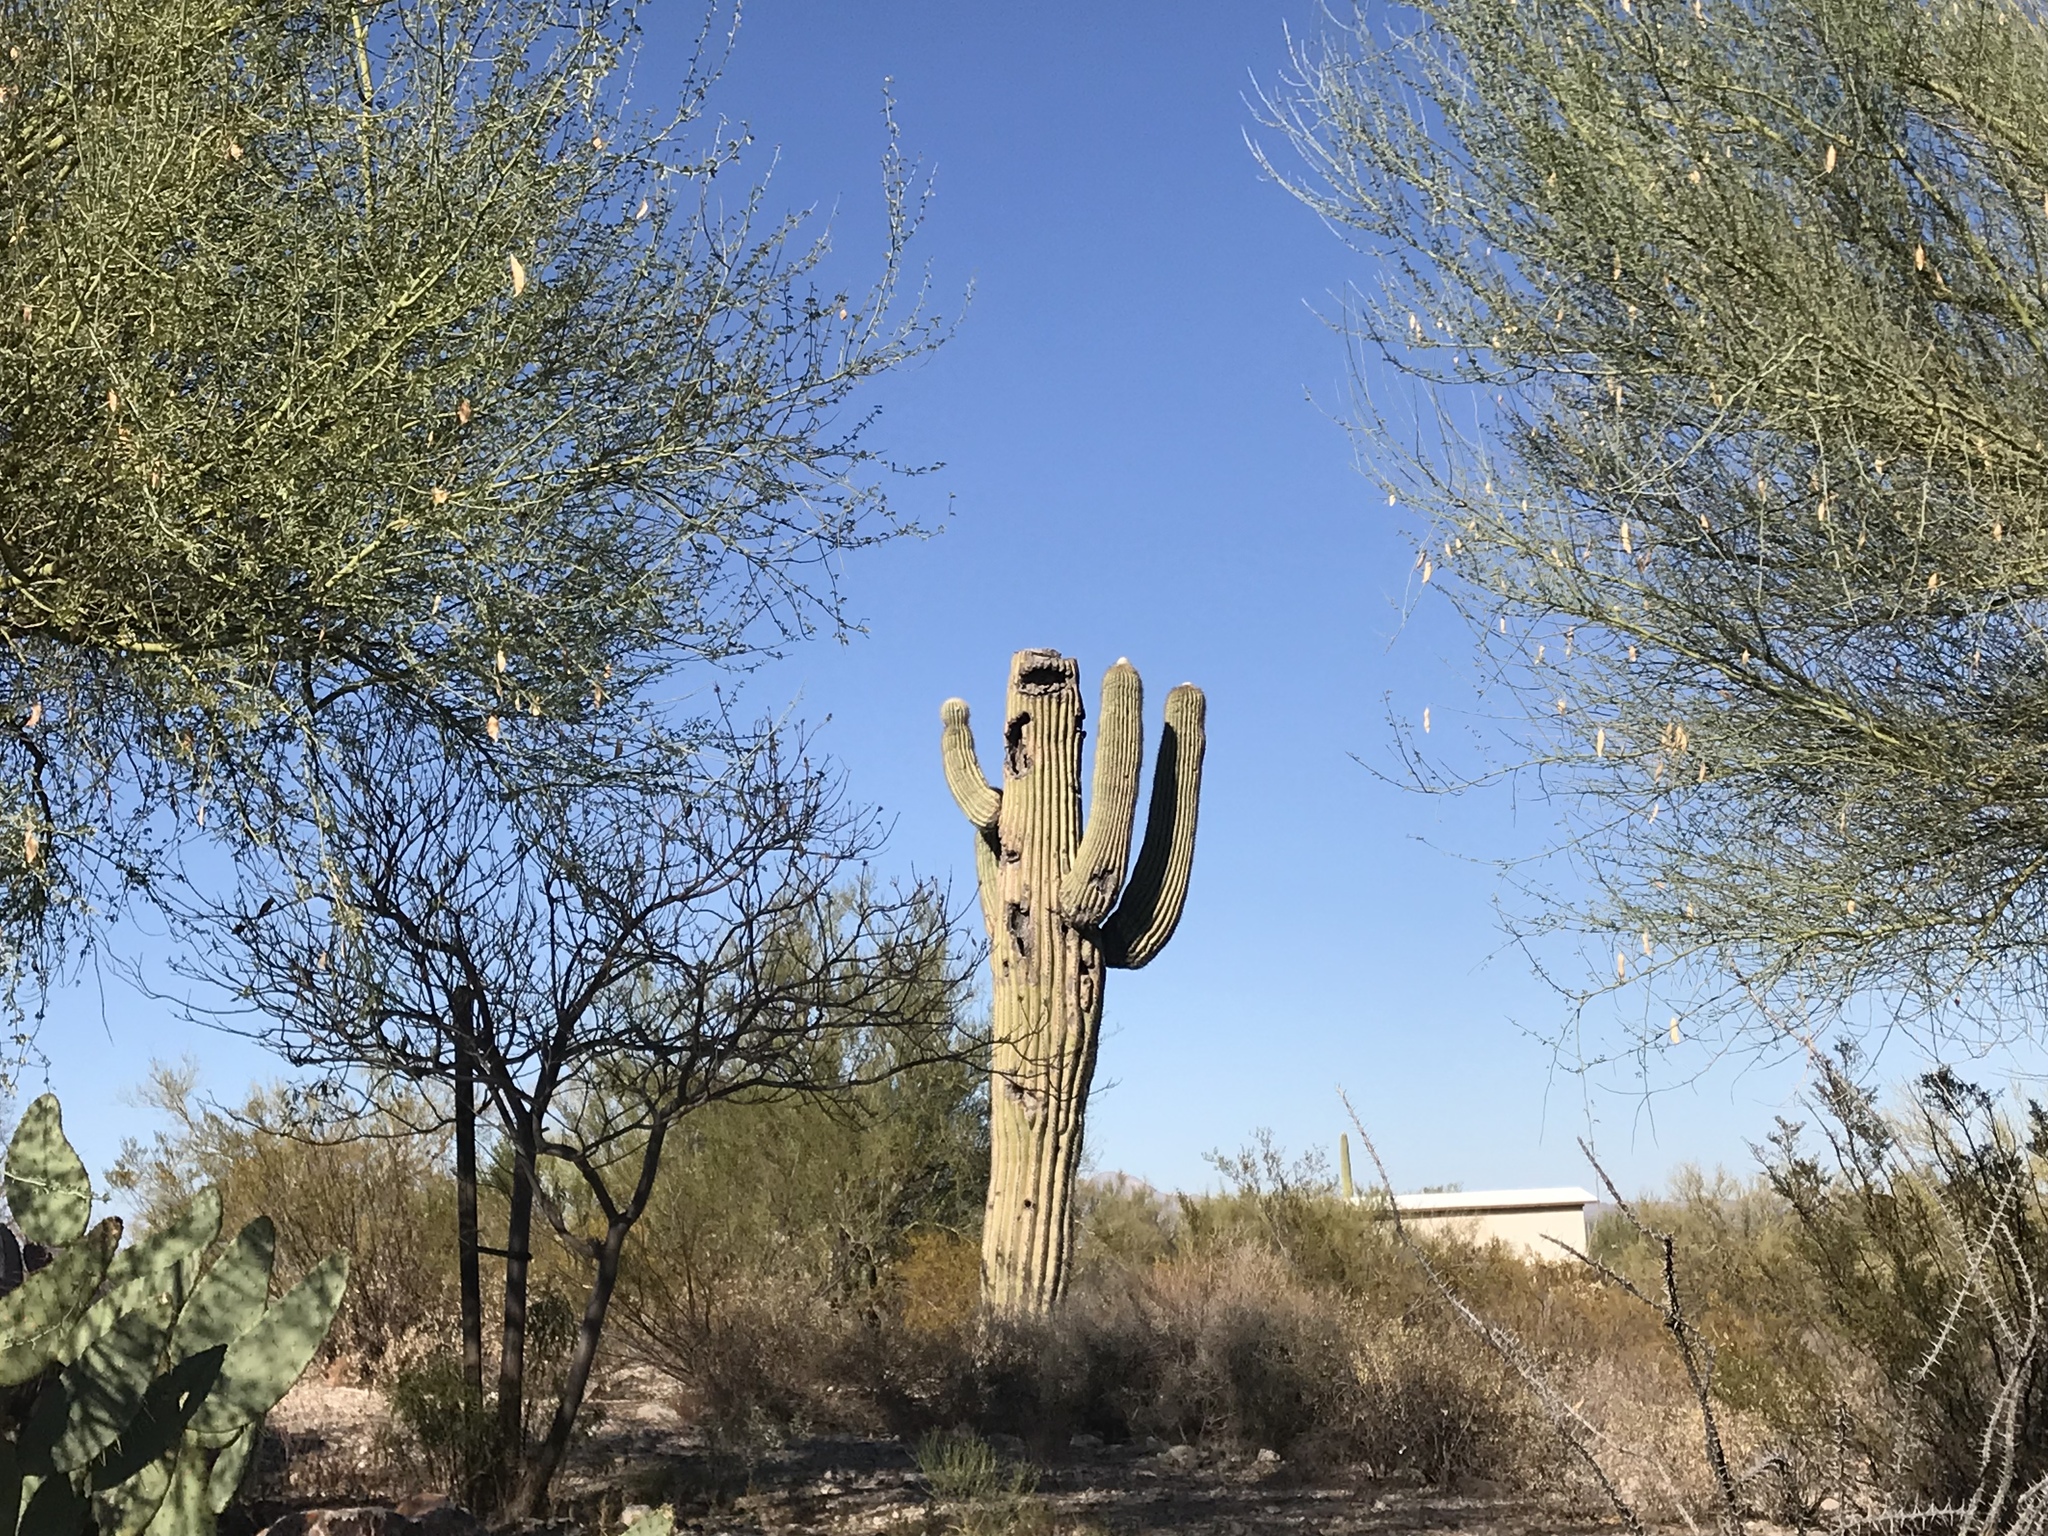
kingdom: Plantae
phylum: Tracheophyta
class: Magnoliopsida
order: Caryophyllales
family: Cactaceae
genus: Carnegiea
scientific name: Carnegiea gigantea
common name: Saguaro
